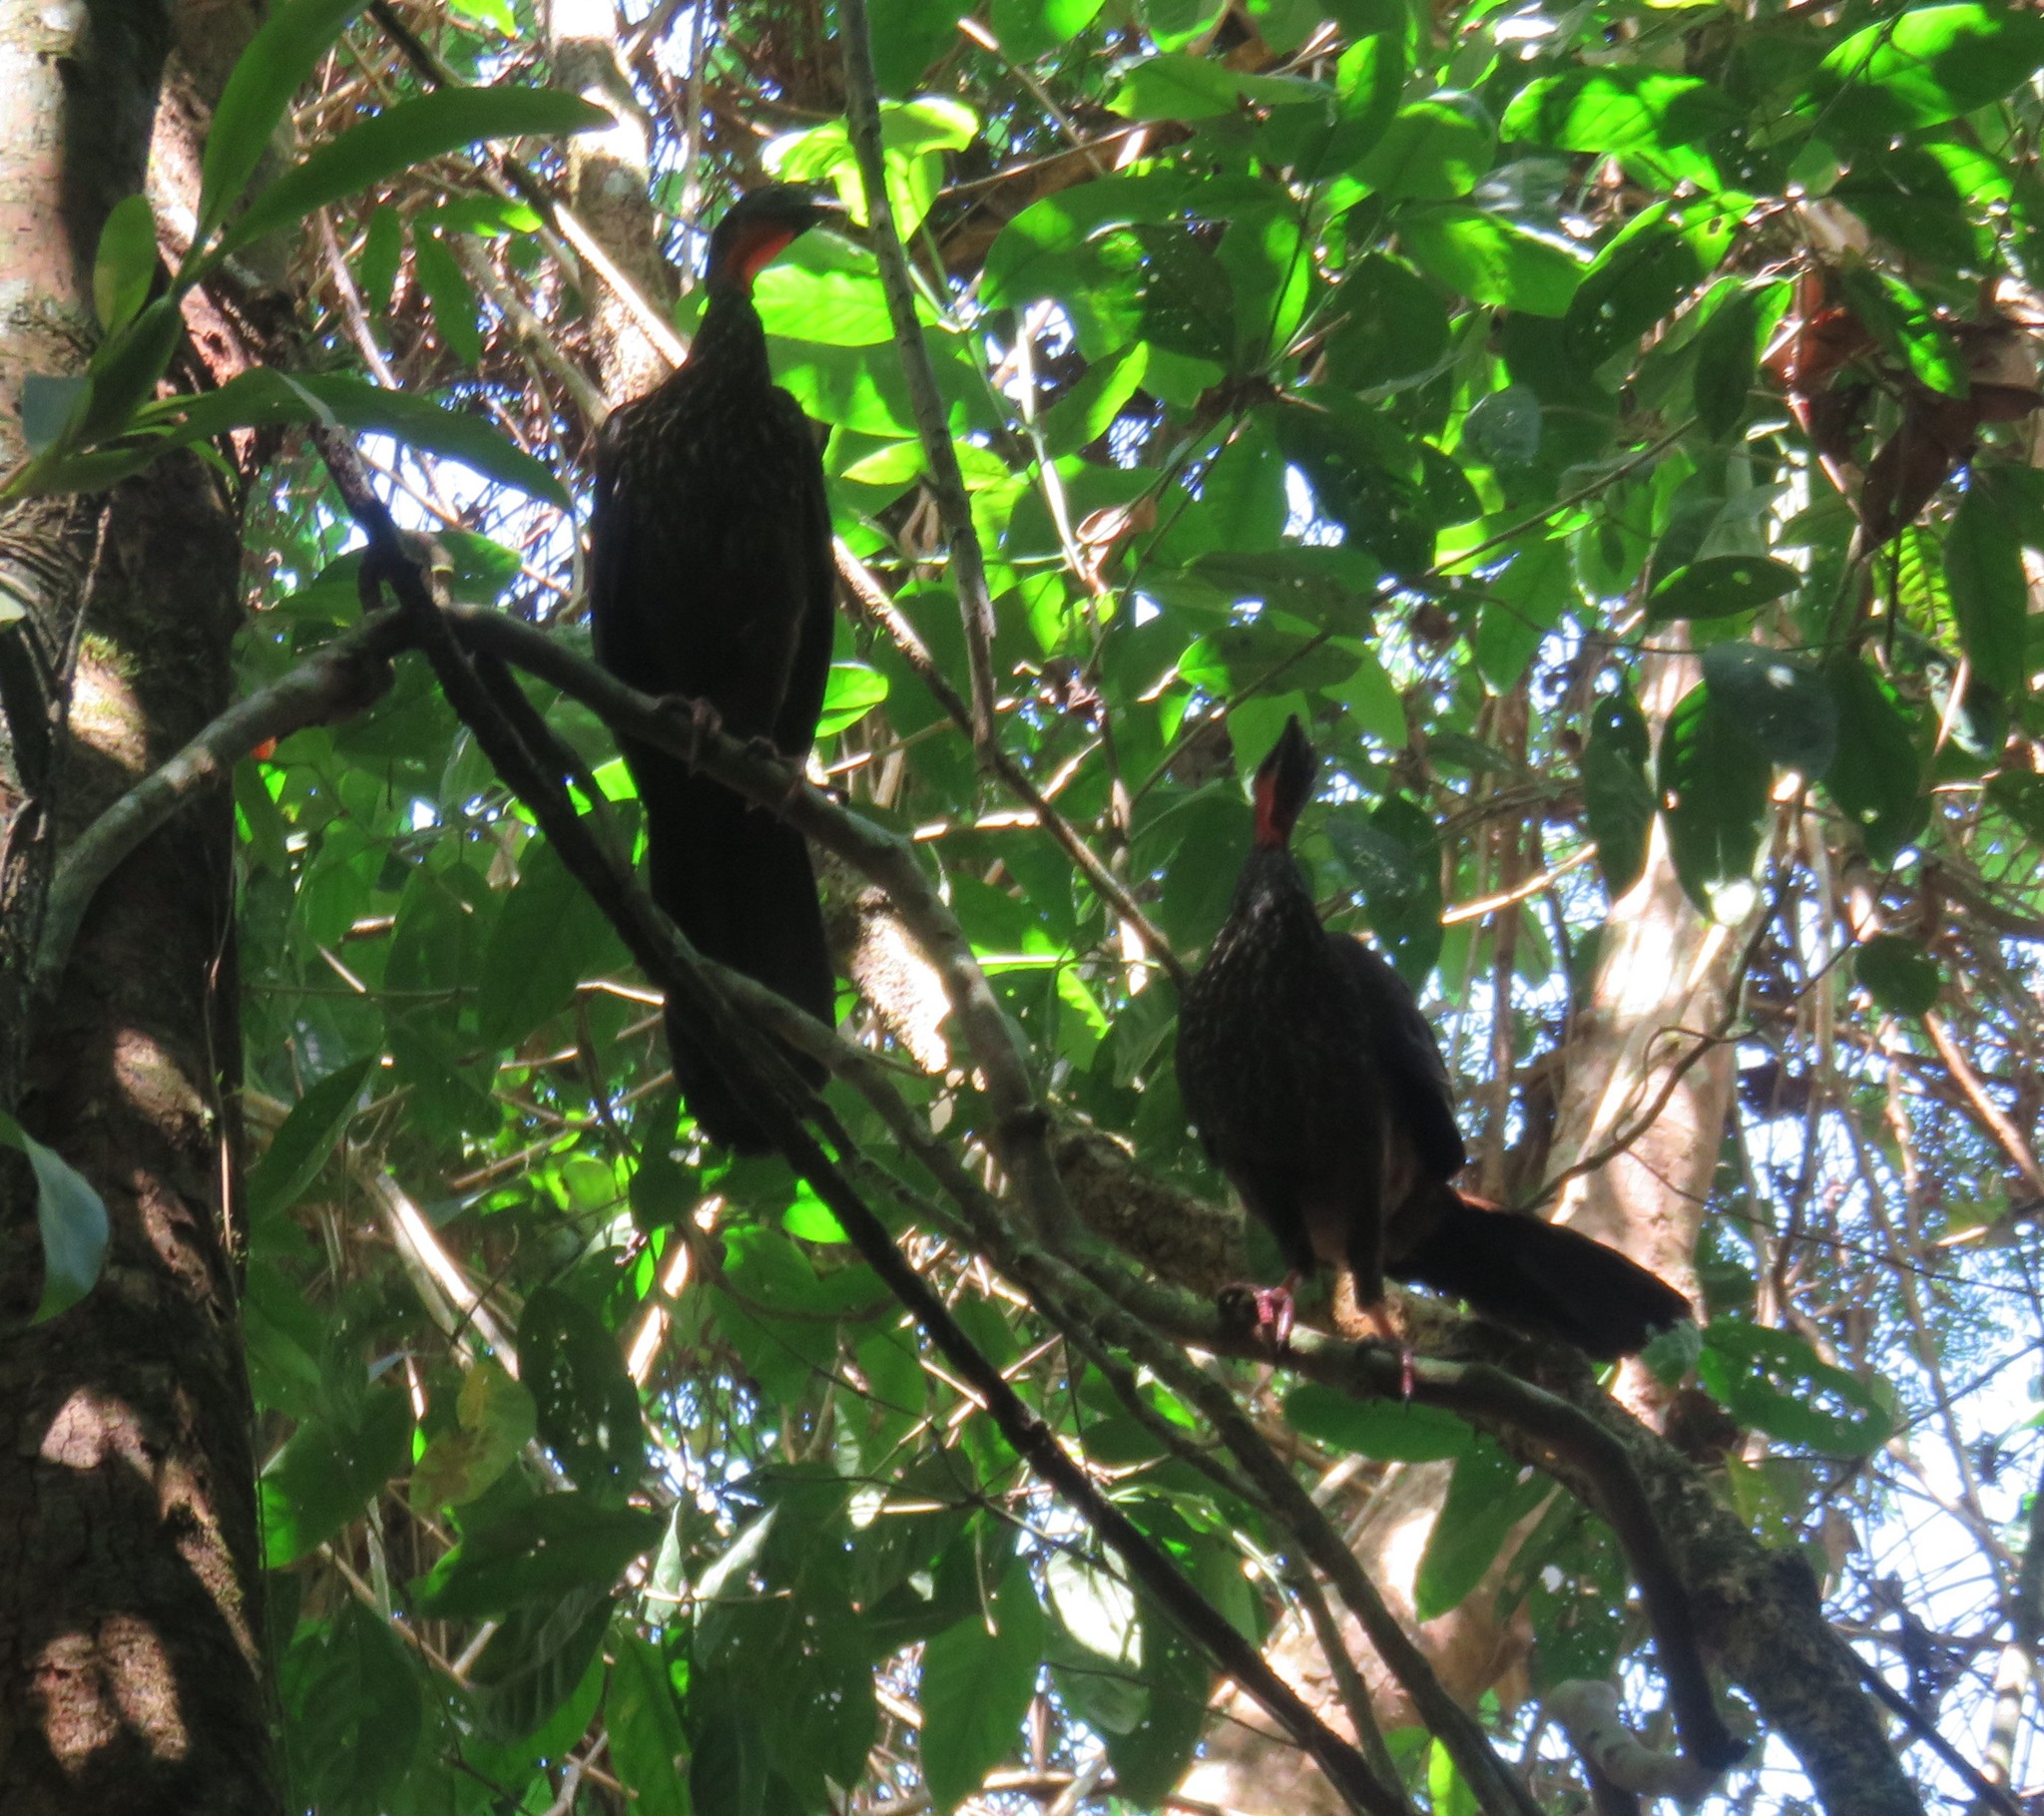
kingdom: Animalia
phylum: Chordata
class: Aves
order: Galliformes
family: Cracidae
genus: Penelope
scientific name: Penelope purpurascens
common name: Crested guan
